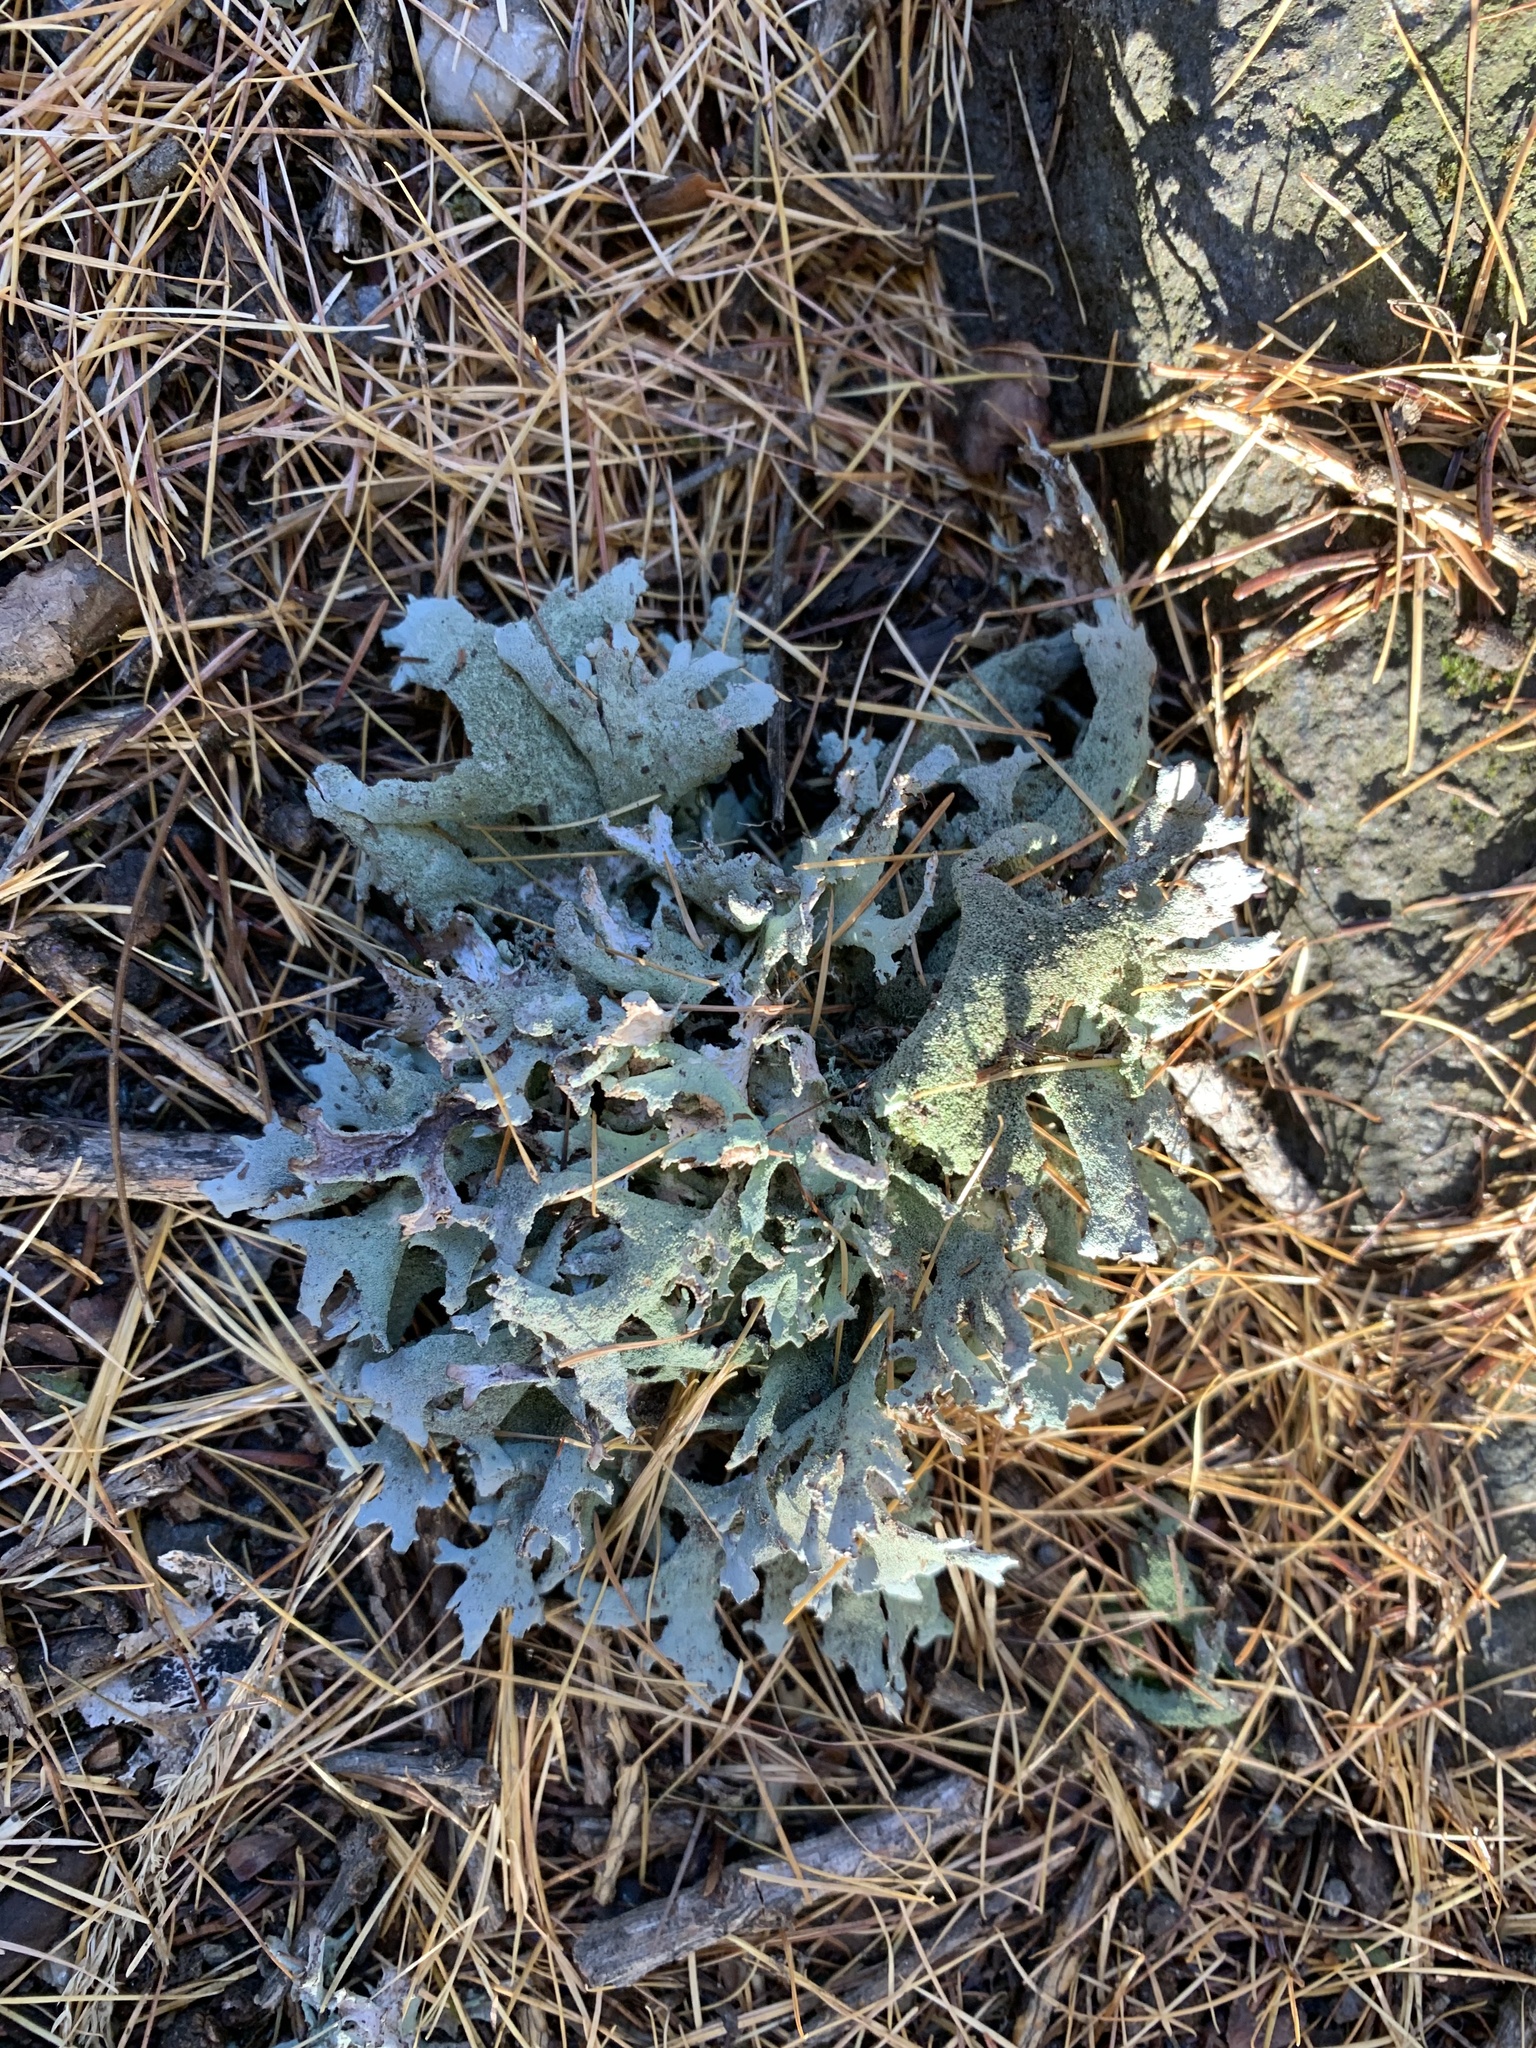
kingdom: Fungi
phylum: Ascomycota
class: Lecanoromycetes
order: Lecanorales
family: Parmeliaceae
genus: Pseudevernia
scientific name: Pseudevernia furfuracea
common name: Tree moss
